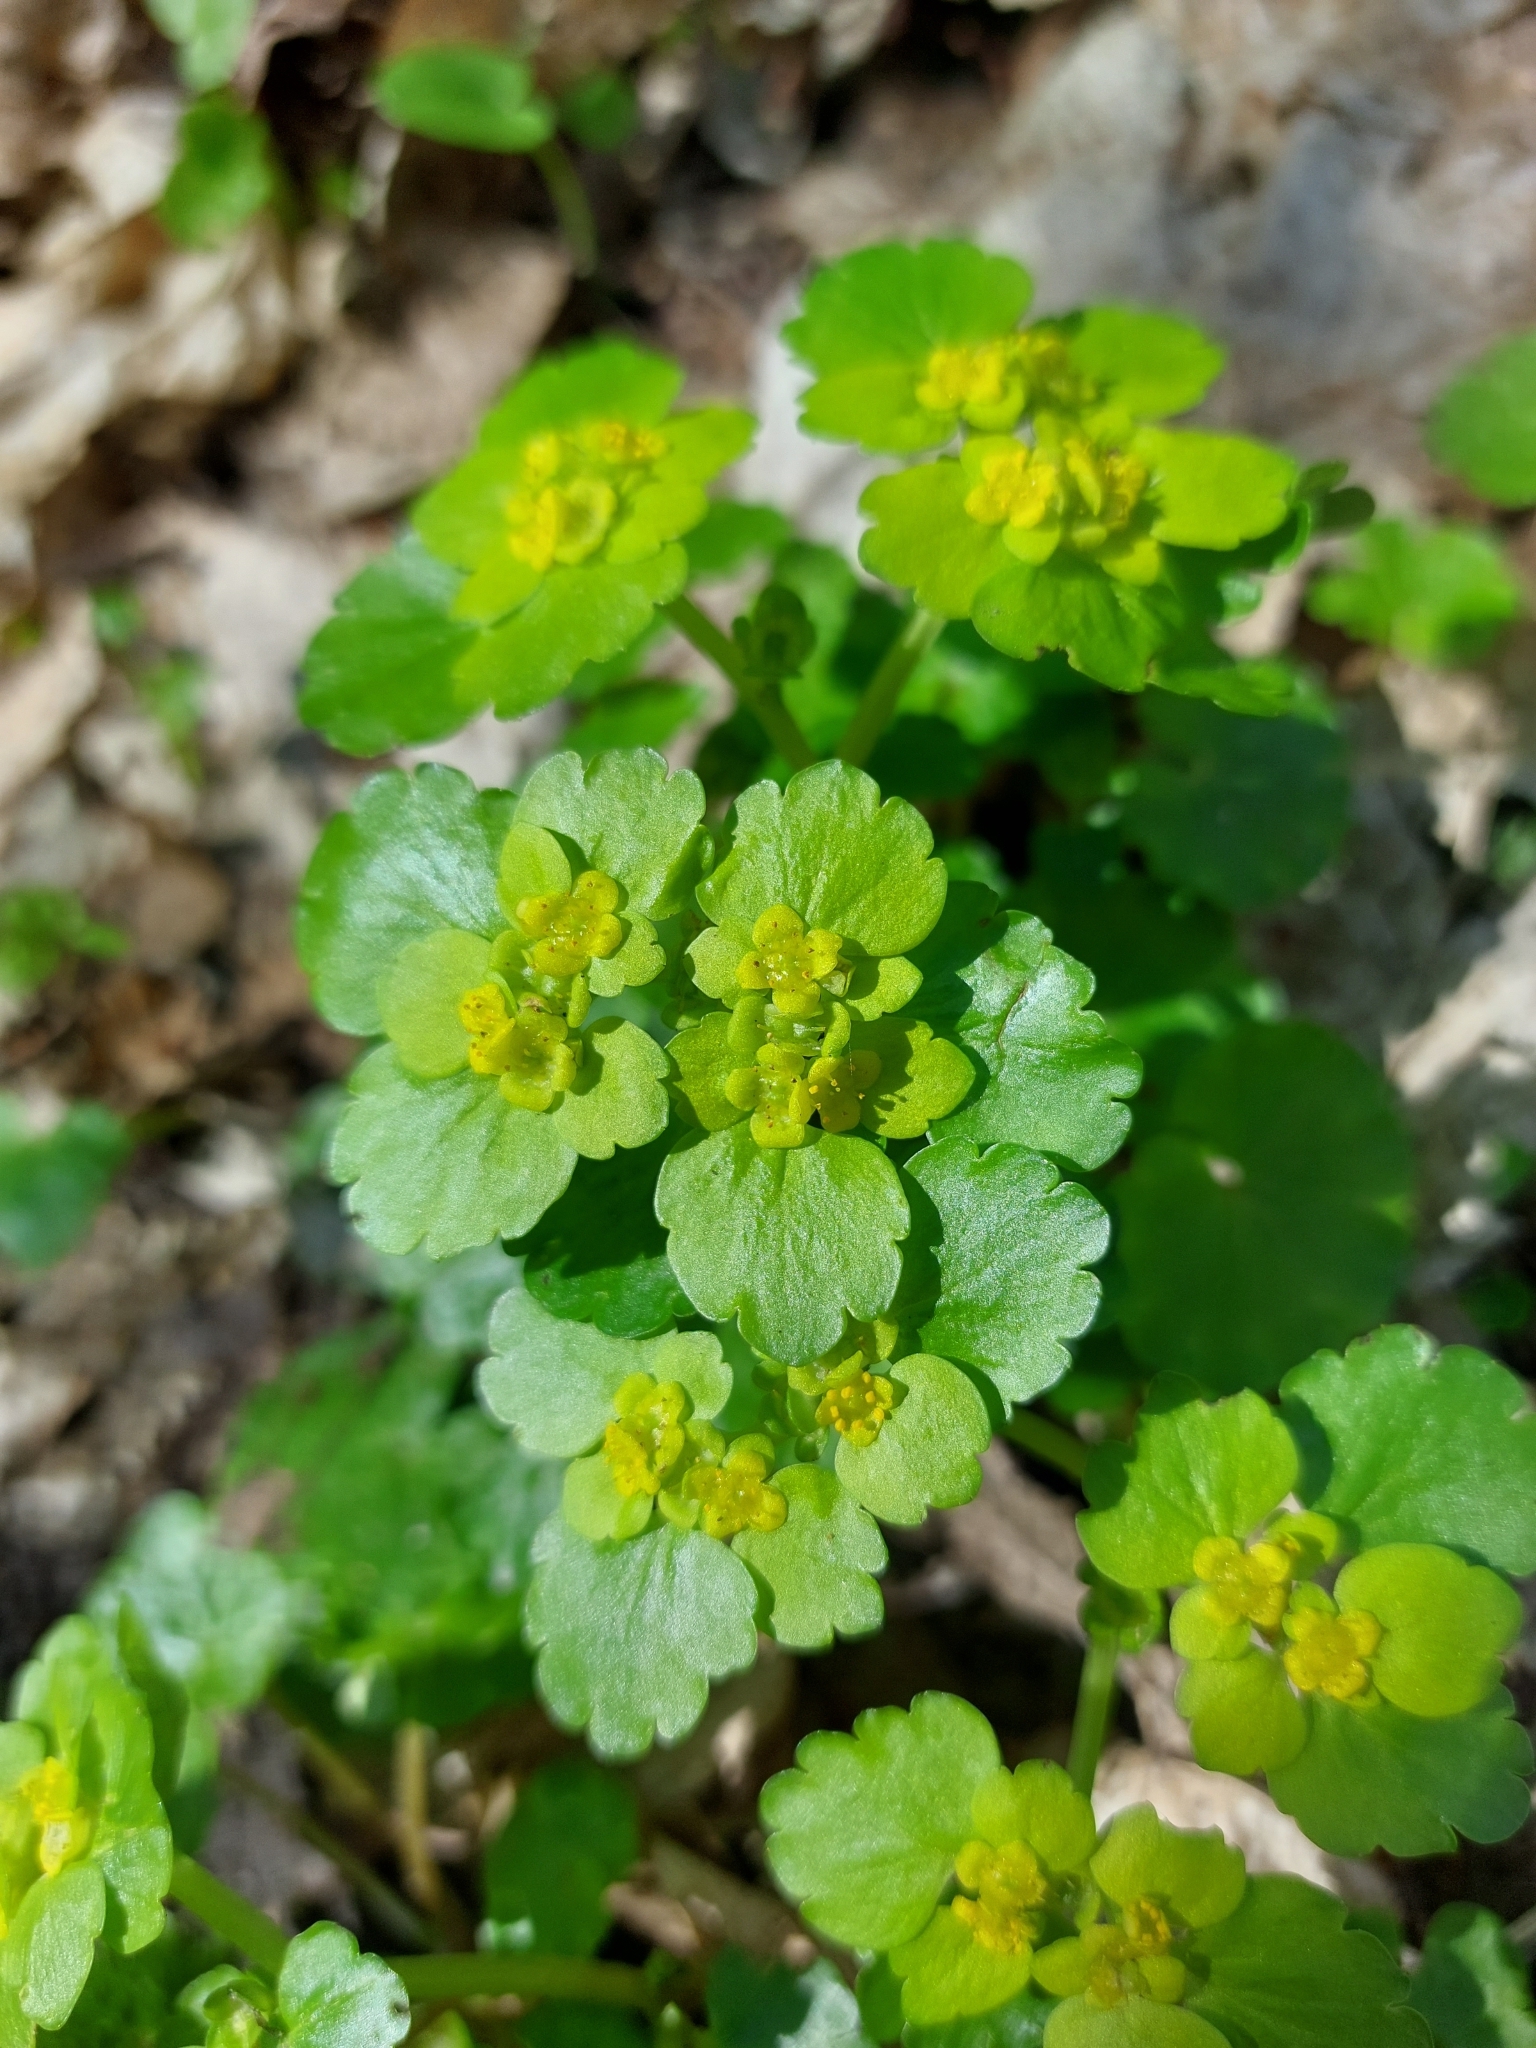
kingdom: Plantae
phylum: Tracheophyta
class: Magnoliopsida
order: Saxifragales
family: Saxifragaceae
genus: Chrysosplenium
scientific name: Chrysosplenium alternifolium
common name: Alternate-leaved golden-saxifrage
